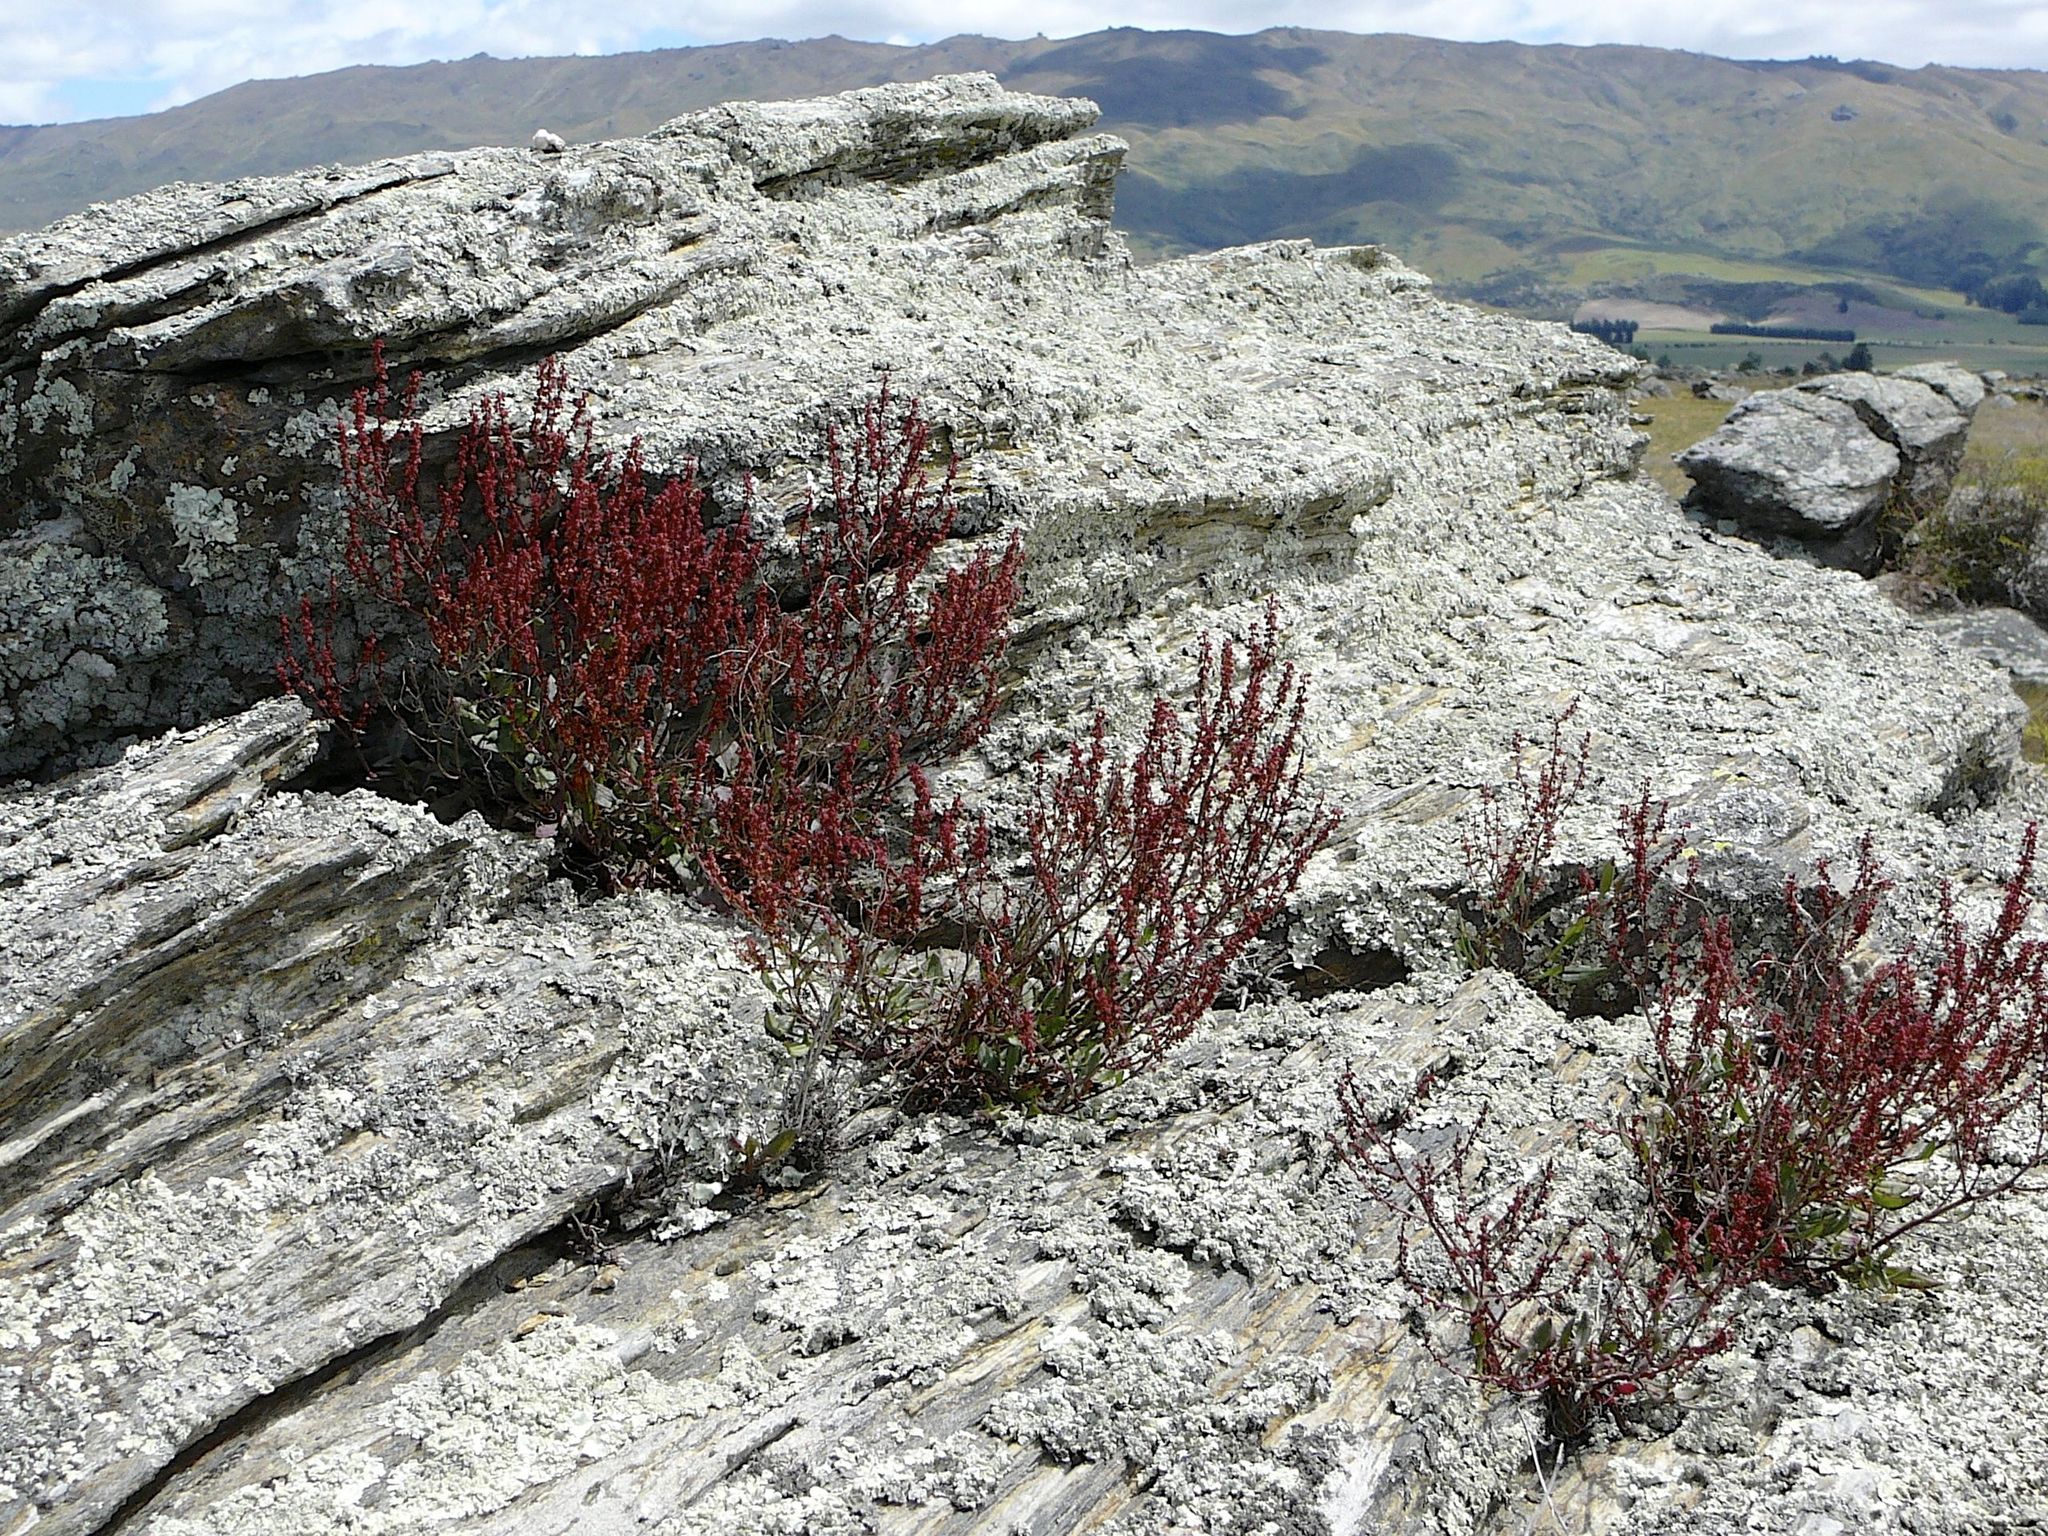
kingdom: Plantae
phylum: Tracheophyta
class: Magnoliopsida
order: Caryophyllales
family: Polygonaceae
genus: Rumex
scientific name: Rumex acetosella
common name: Common sheep sorrel
